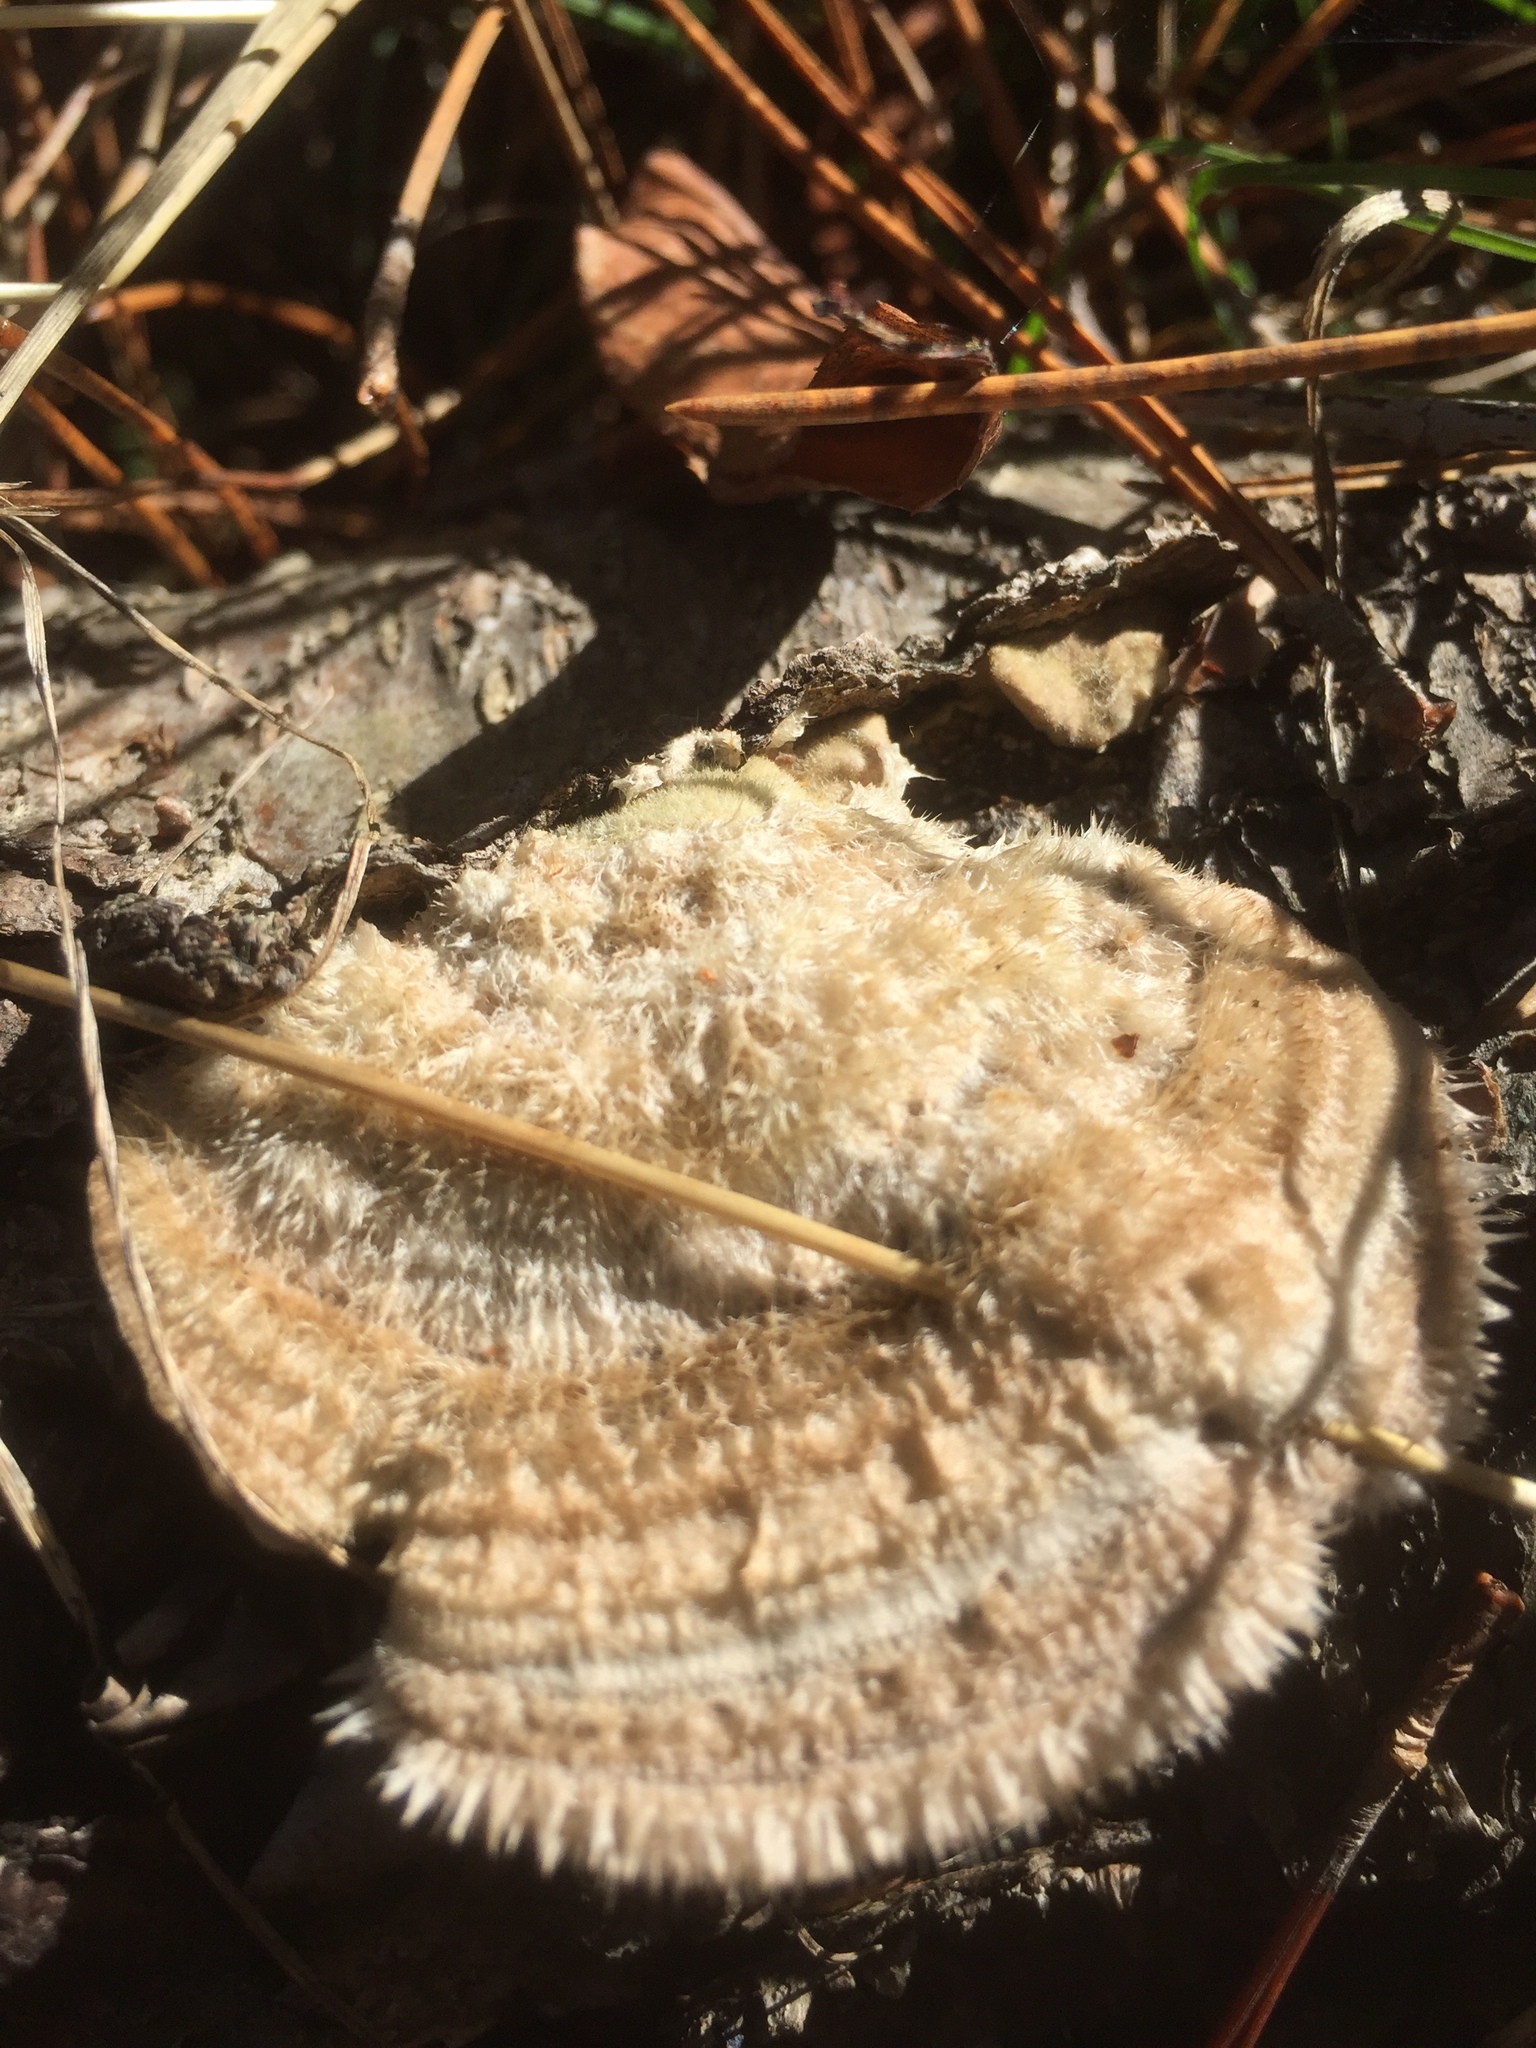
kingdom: Fungi
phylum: Basidiomycota
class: Agaricomycetes
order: Polyporales
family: Polyporaceae
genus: Trametes
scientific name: Trametes hirsuta
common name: Hairy bracket
